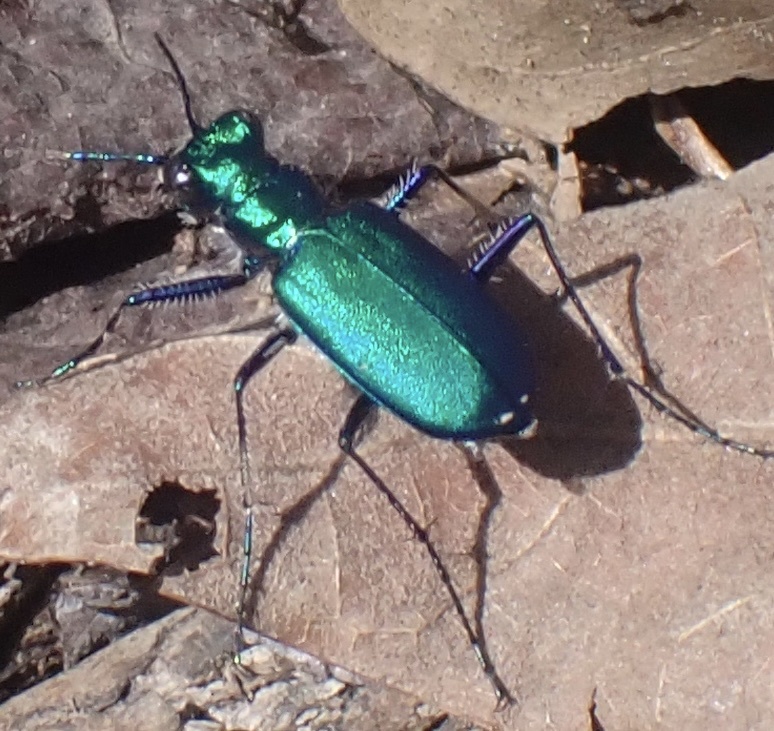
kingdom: Animalia
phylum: Arthropoda
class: Insecta
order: Coleoptera
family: Carabidae
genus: Cicindela
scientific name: Cicindela sexguttata
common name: Six-spotted tiger beetle
